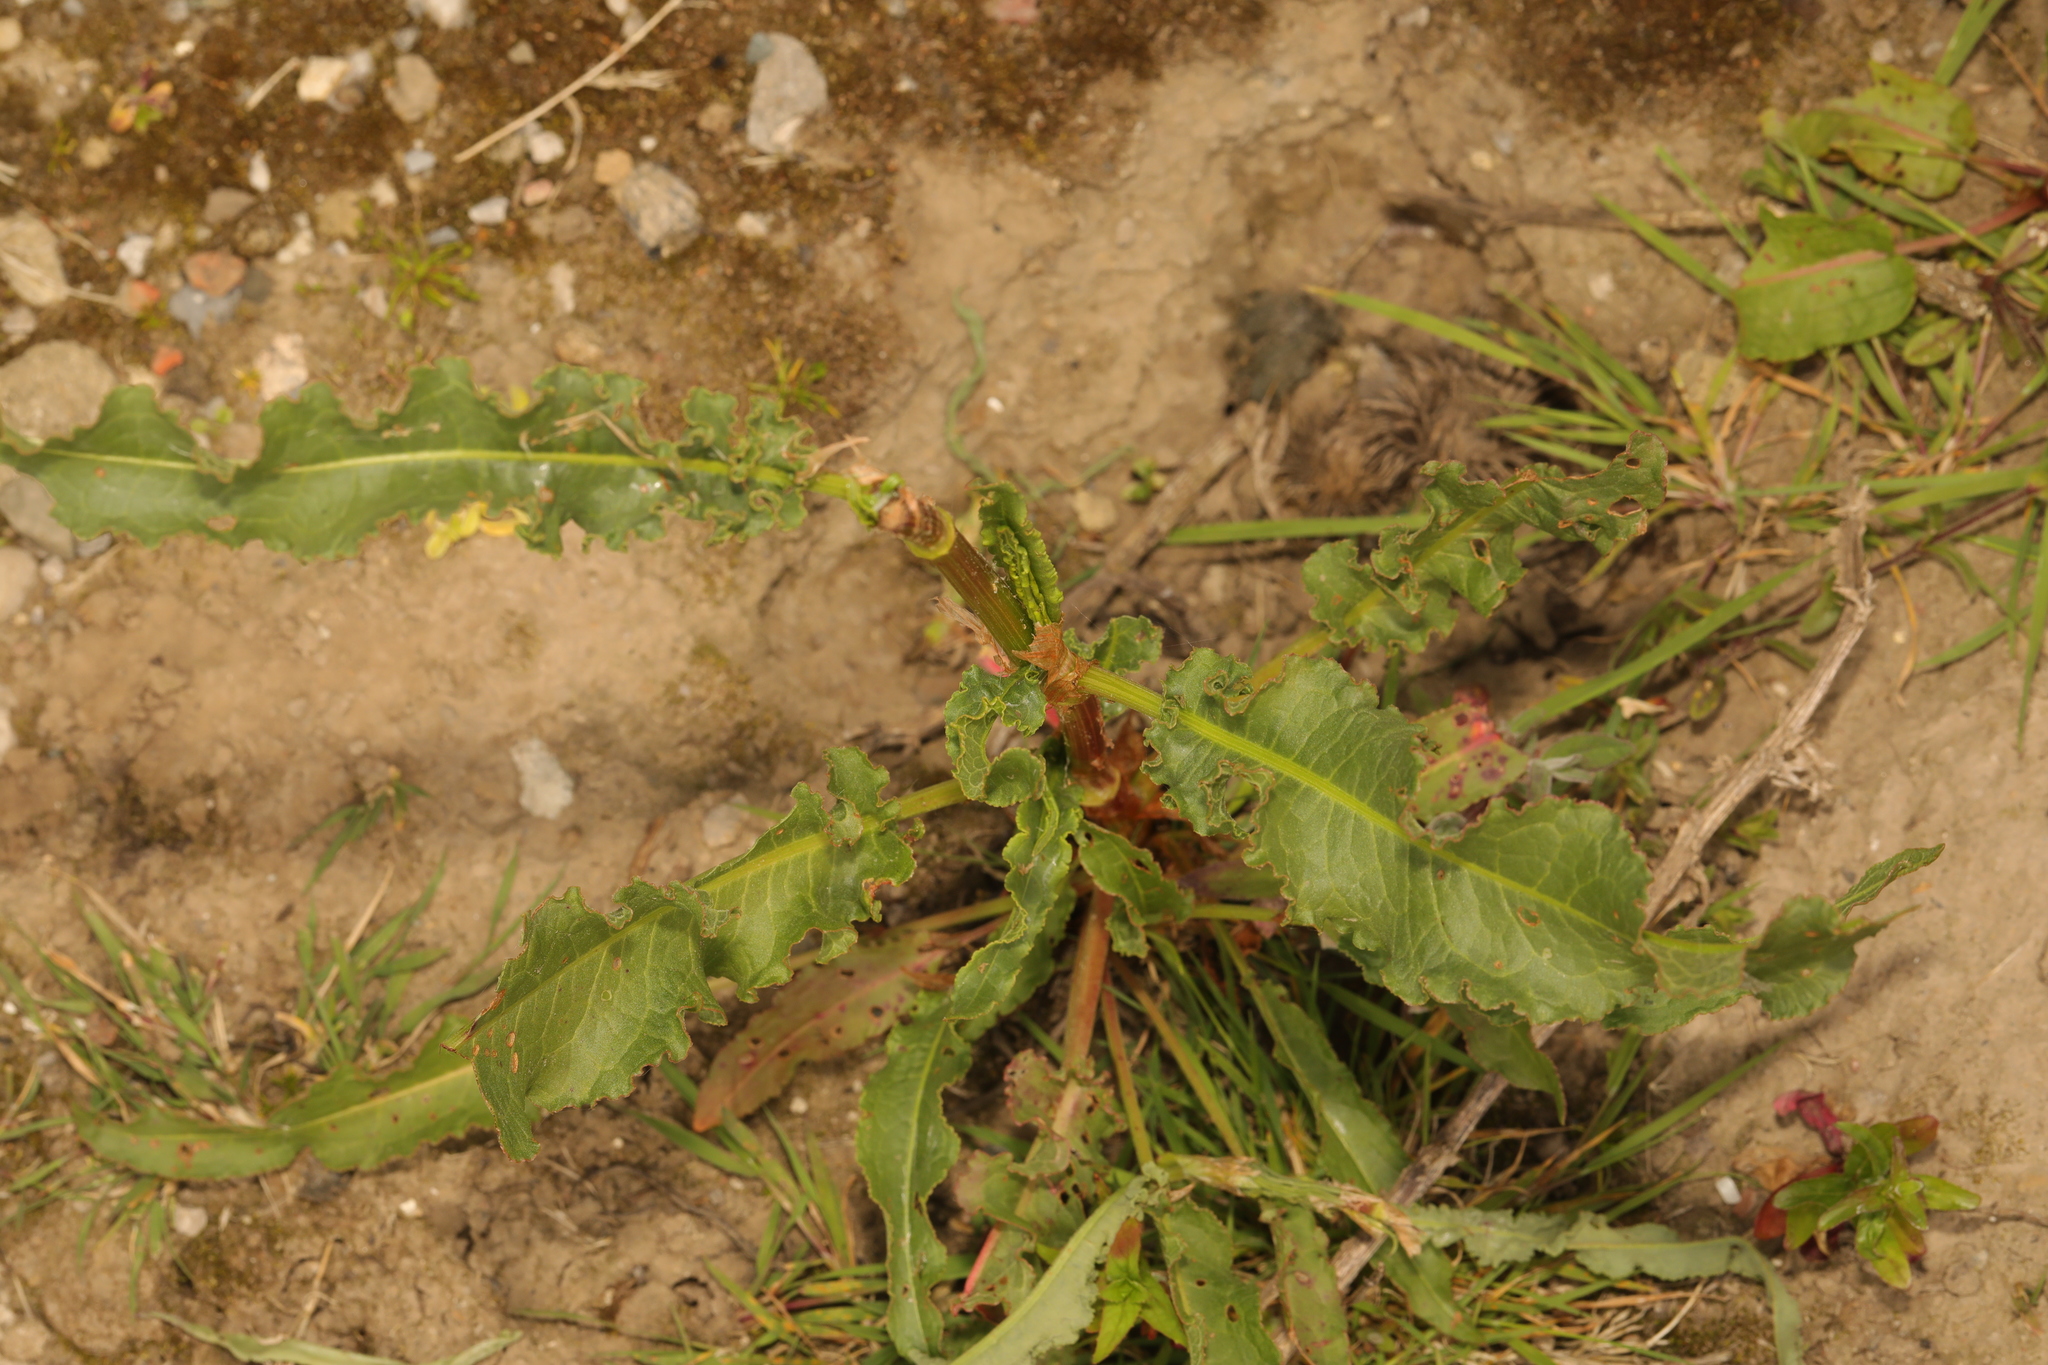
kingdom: Plantae
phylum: Tracheophyta
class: Magnoliopsida
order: Caryophyllales
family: Polygonaceae
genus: Rumex
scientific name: Rumex crispus
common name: Curled dock
